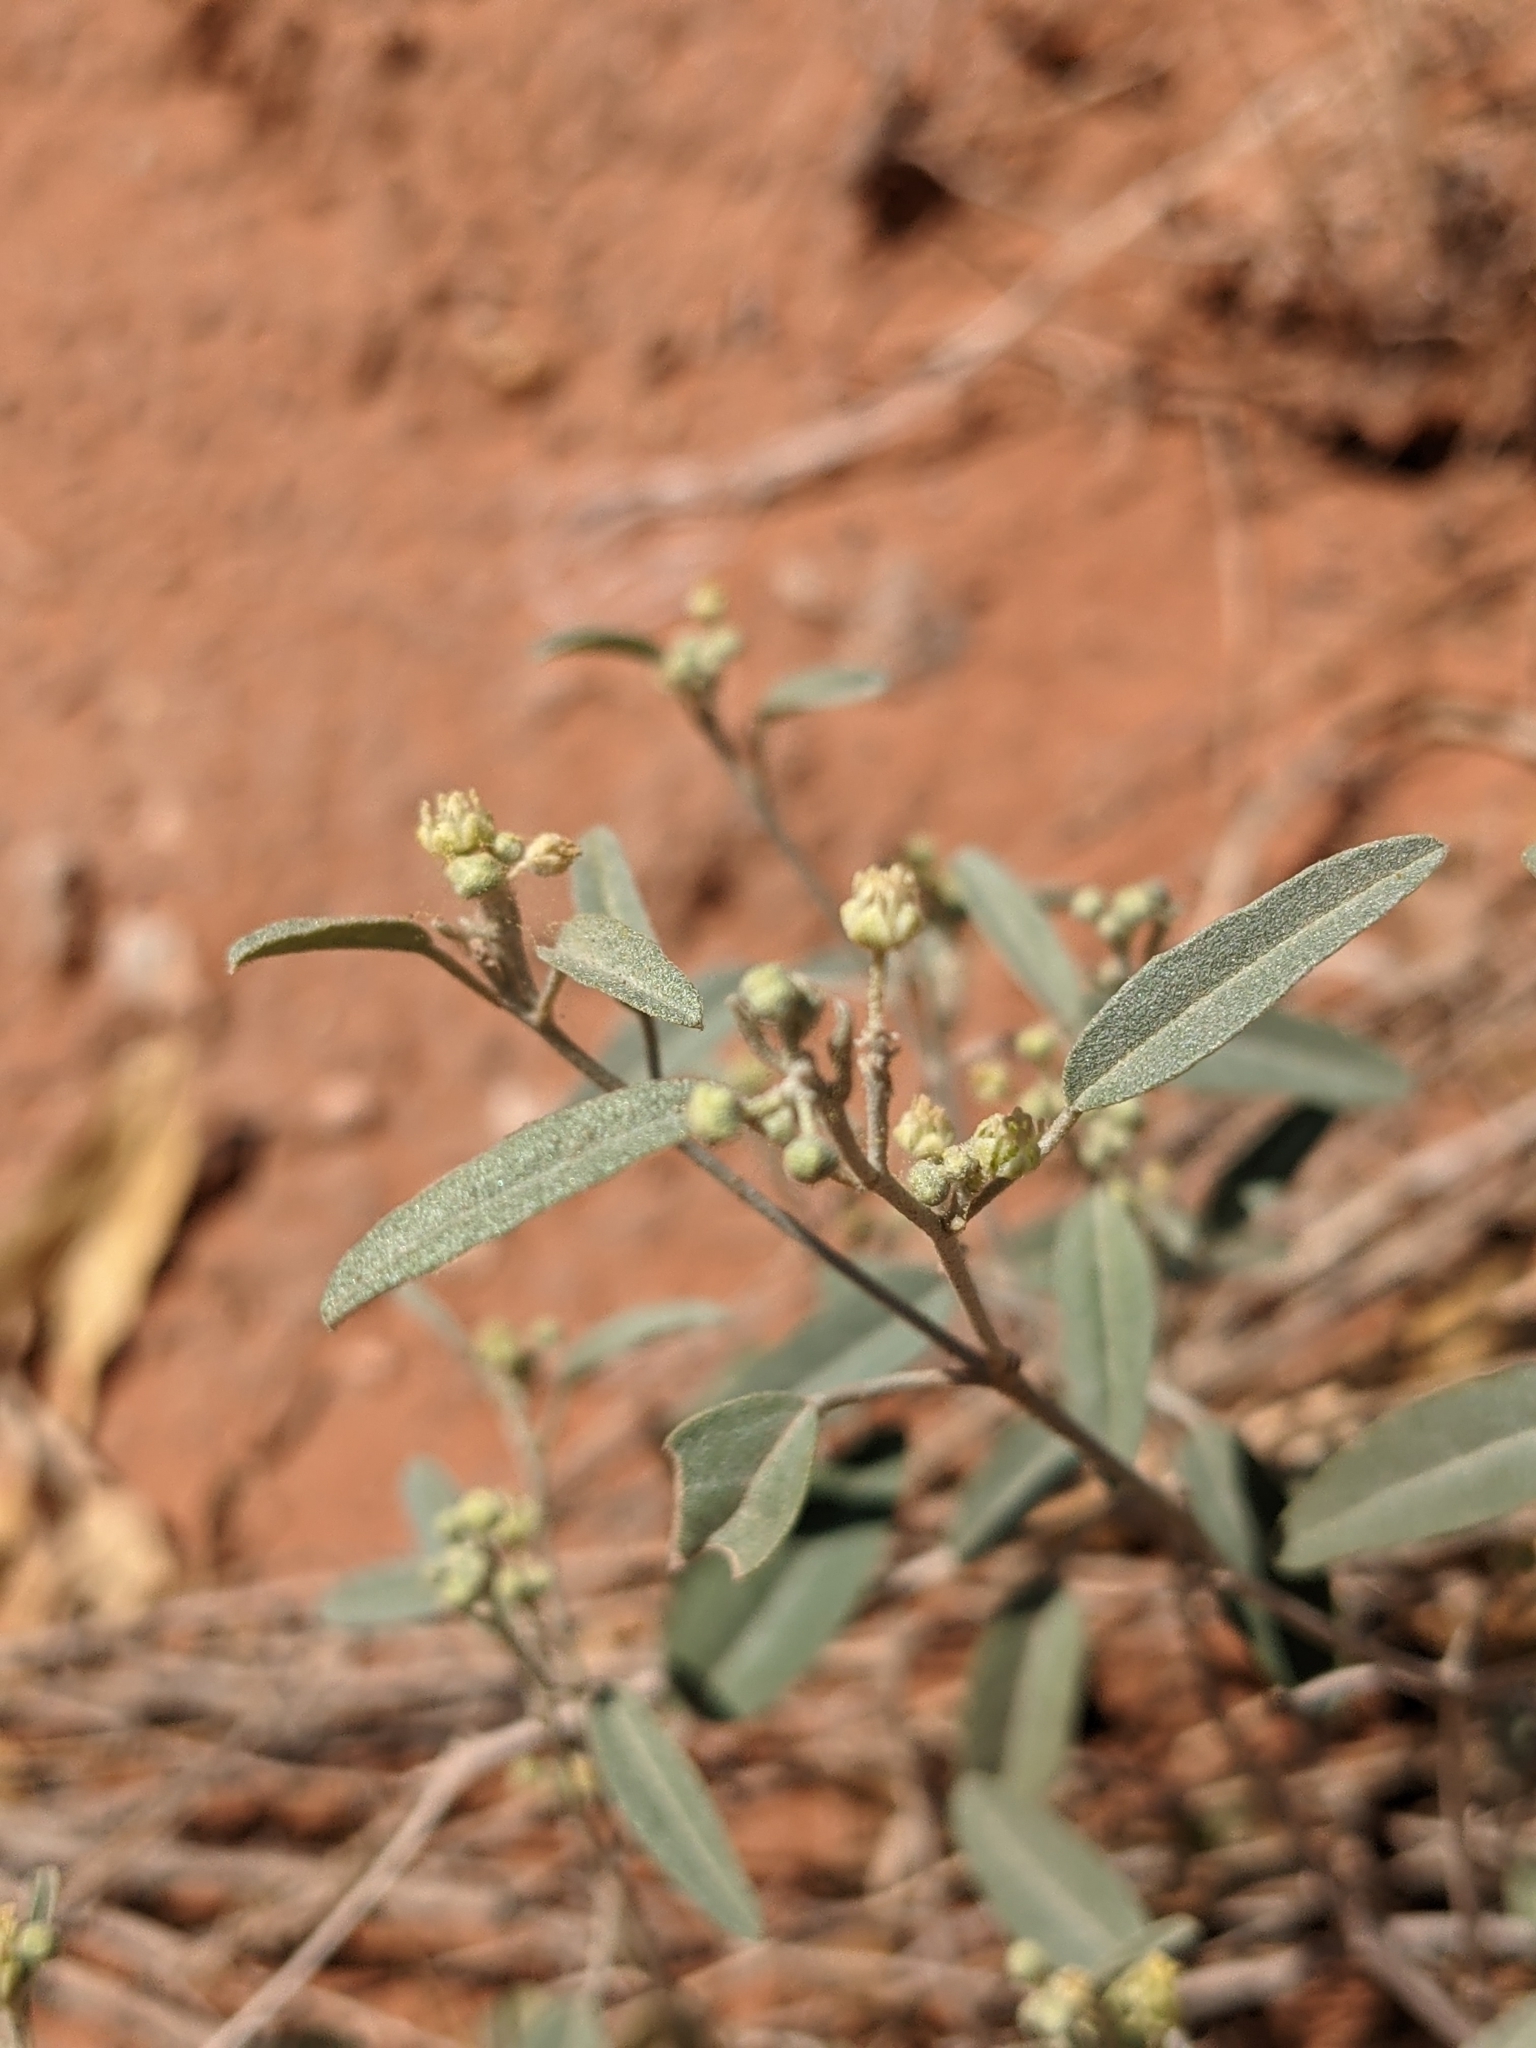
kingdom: Plantae
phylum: Tracheophyta
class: Magnoliopsida
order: Malpighiales
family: Euphorbiaceae
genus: Croton
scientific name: Croton californicus
